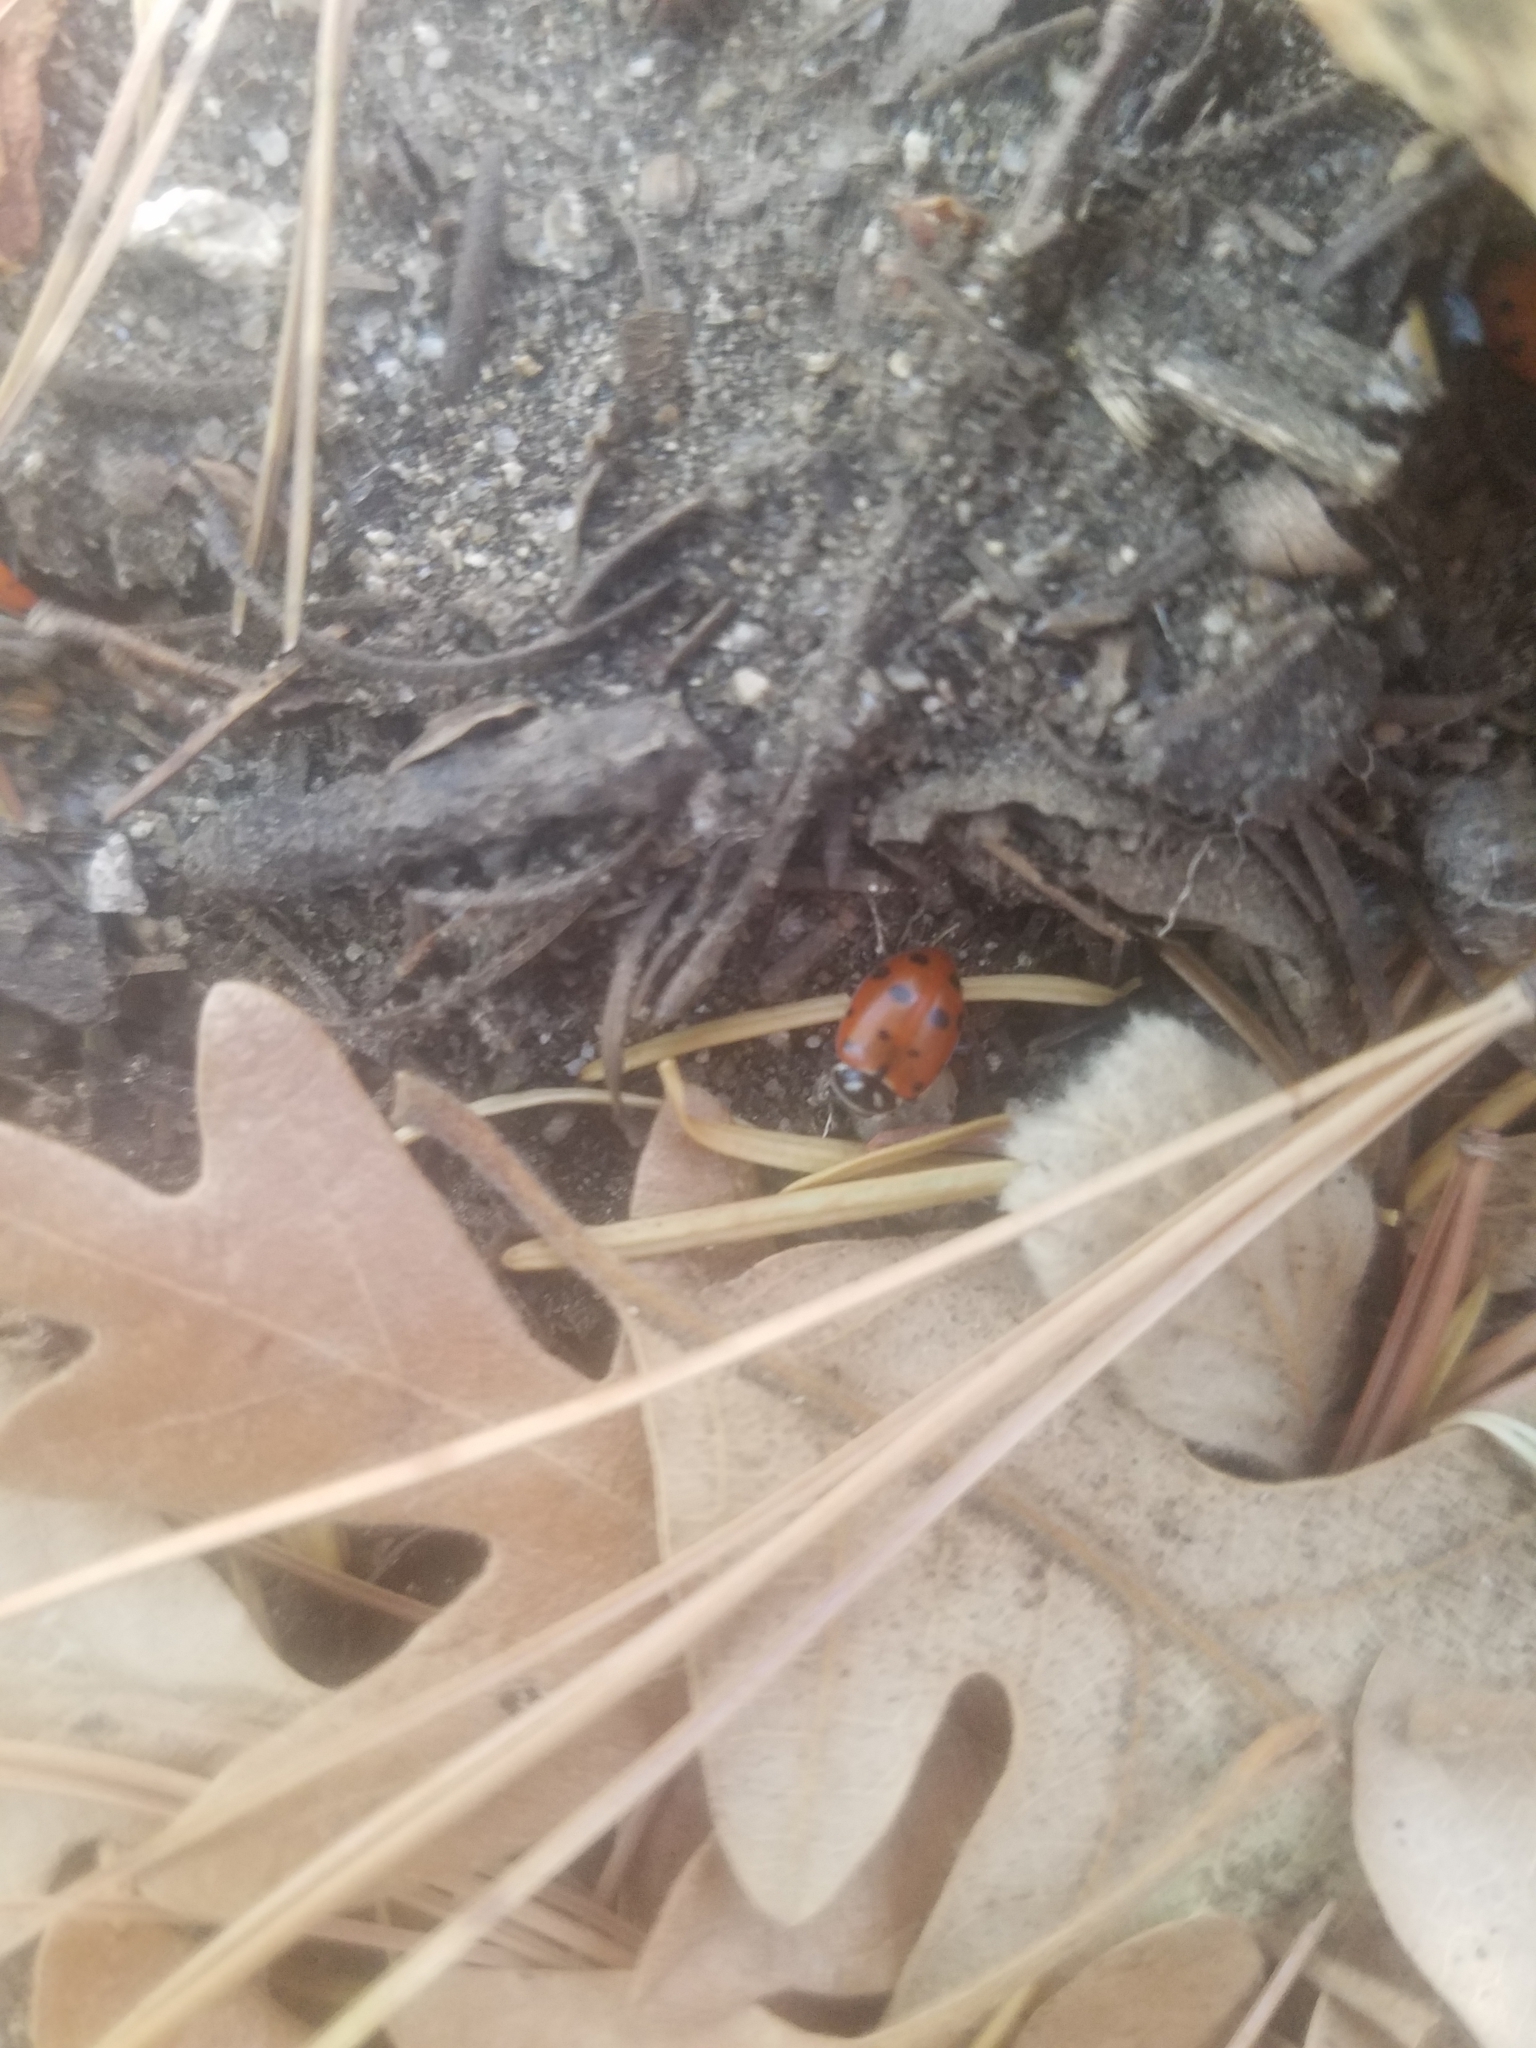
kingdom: Animalia
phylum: Arthropoda
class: Insecta
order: Coleoptera
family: Coccinellidae
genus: Hippodamia
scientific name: Hippodamia convergens
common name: Convergent lady beetle
